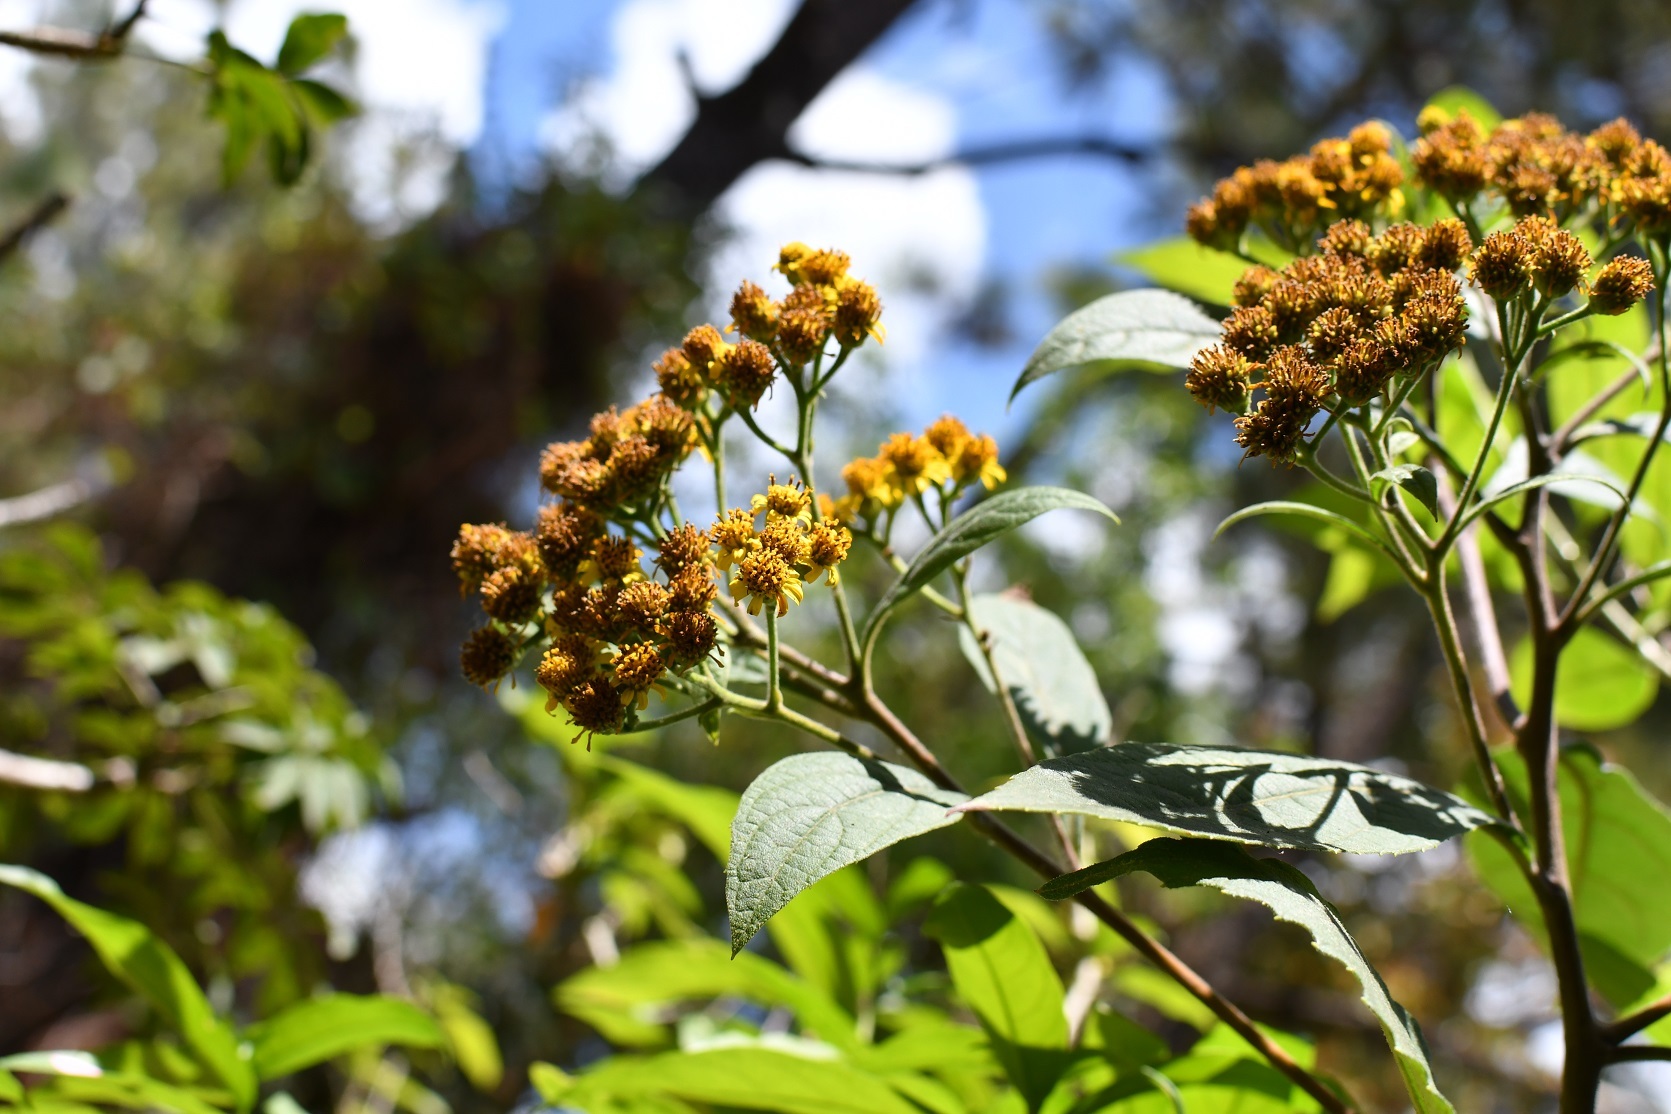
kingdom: Plantae
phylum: Tracheophyta
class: Magnoliopsida
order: Asterales
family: Asteraceae
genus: Verbesina
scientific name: Verbesina pleistocephala
